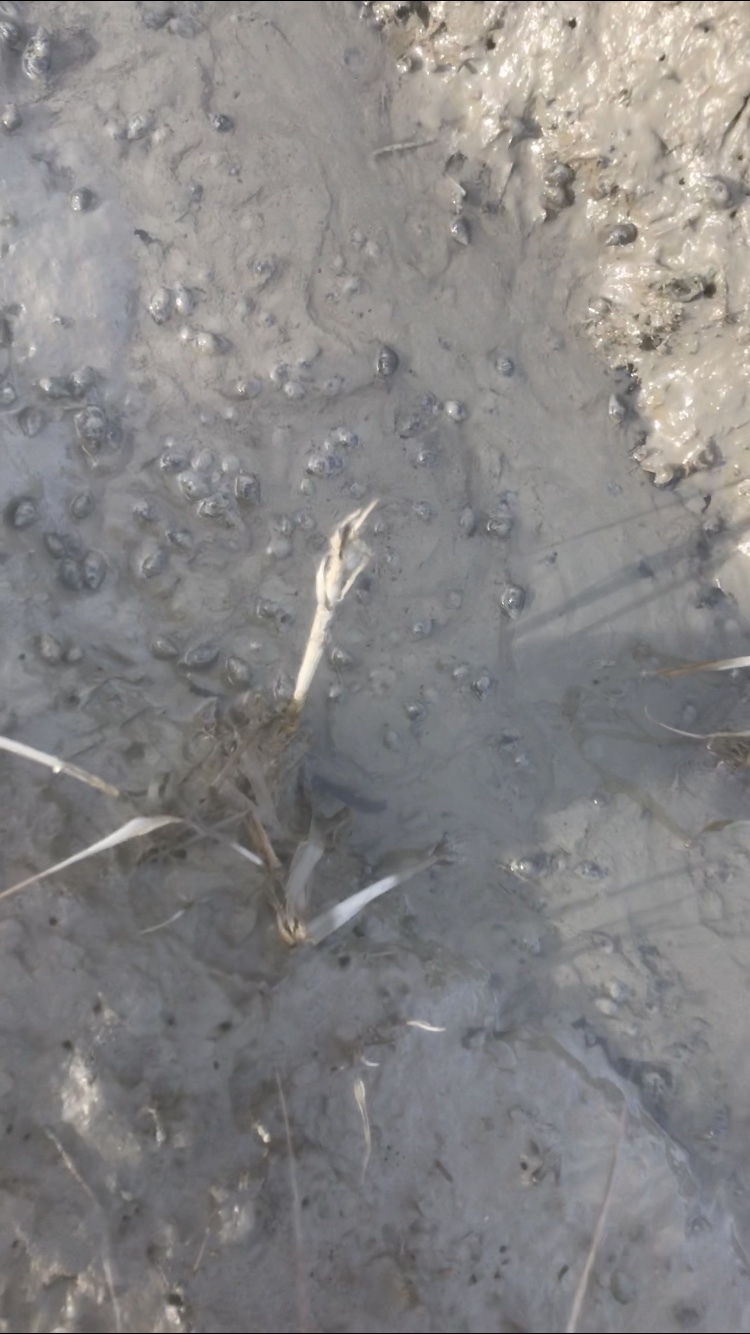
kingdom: Animalia
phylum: Mollusca
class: Gastropoda
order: Neogastropoda
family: Nassariidae
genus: Ilyanassa
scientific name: Ilyanassa obsoleta
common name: Eastern mudsnail
